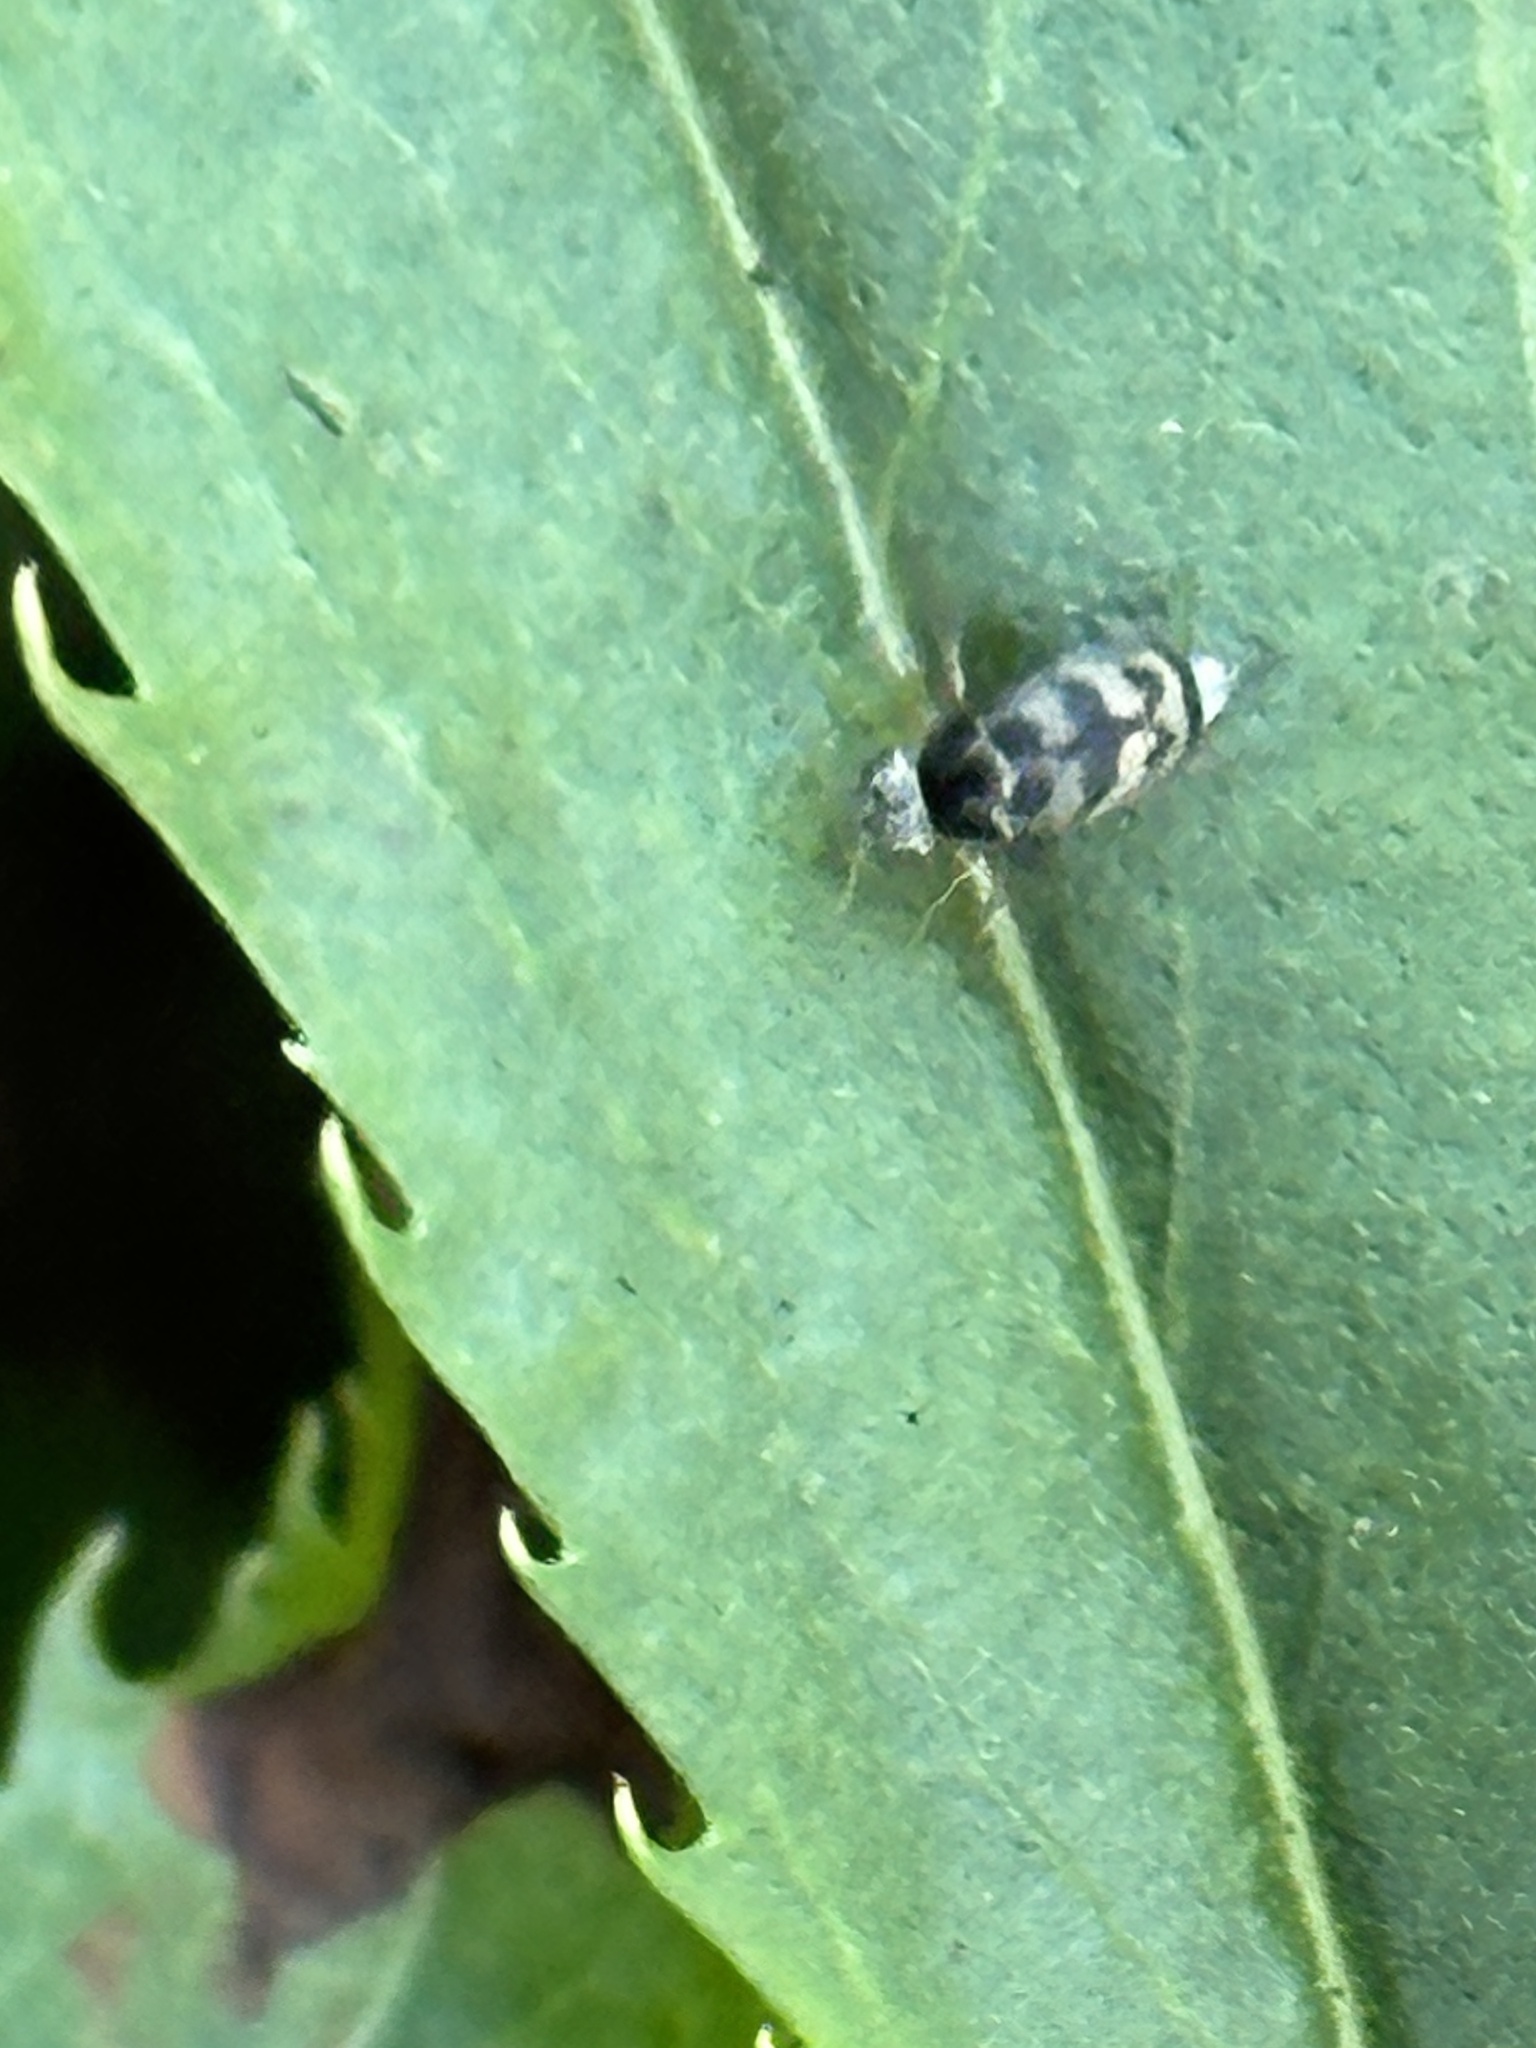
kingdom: Animalia
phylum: Arthropoda
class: Insecta
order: Coleoptera
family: Mordellidae
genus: Paramordellaria
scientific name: Paramordellaria triloba
